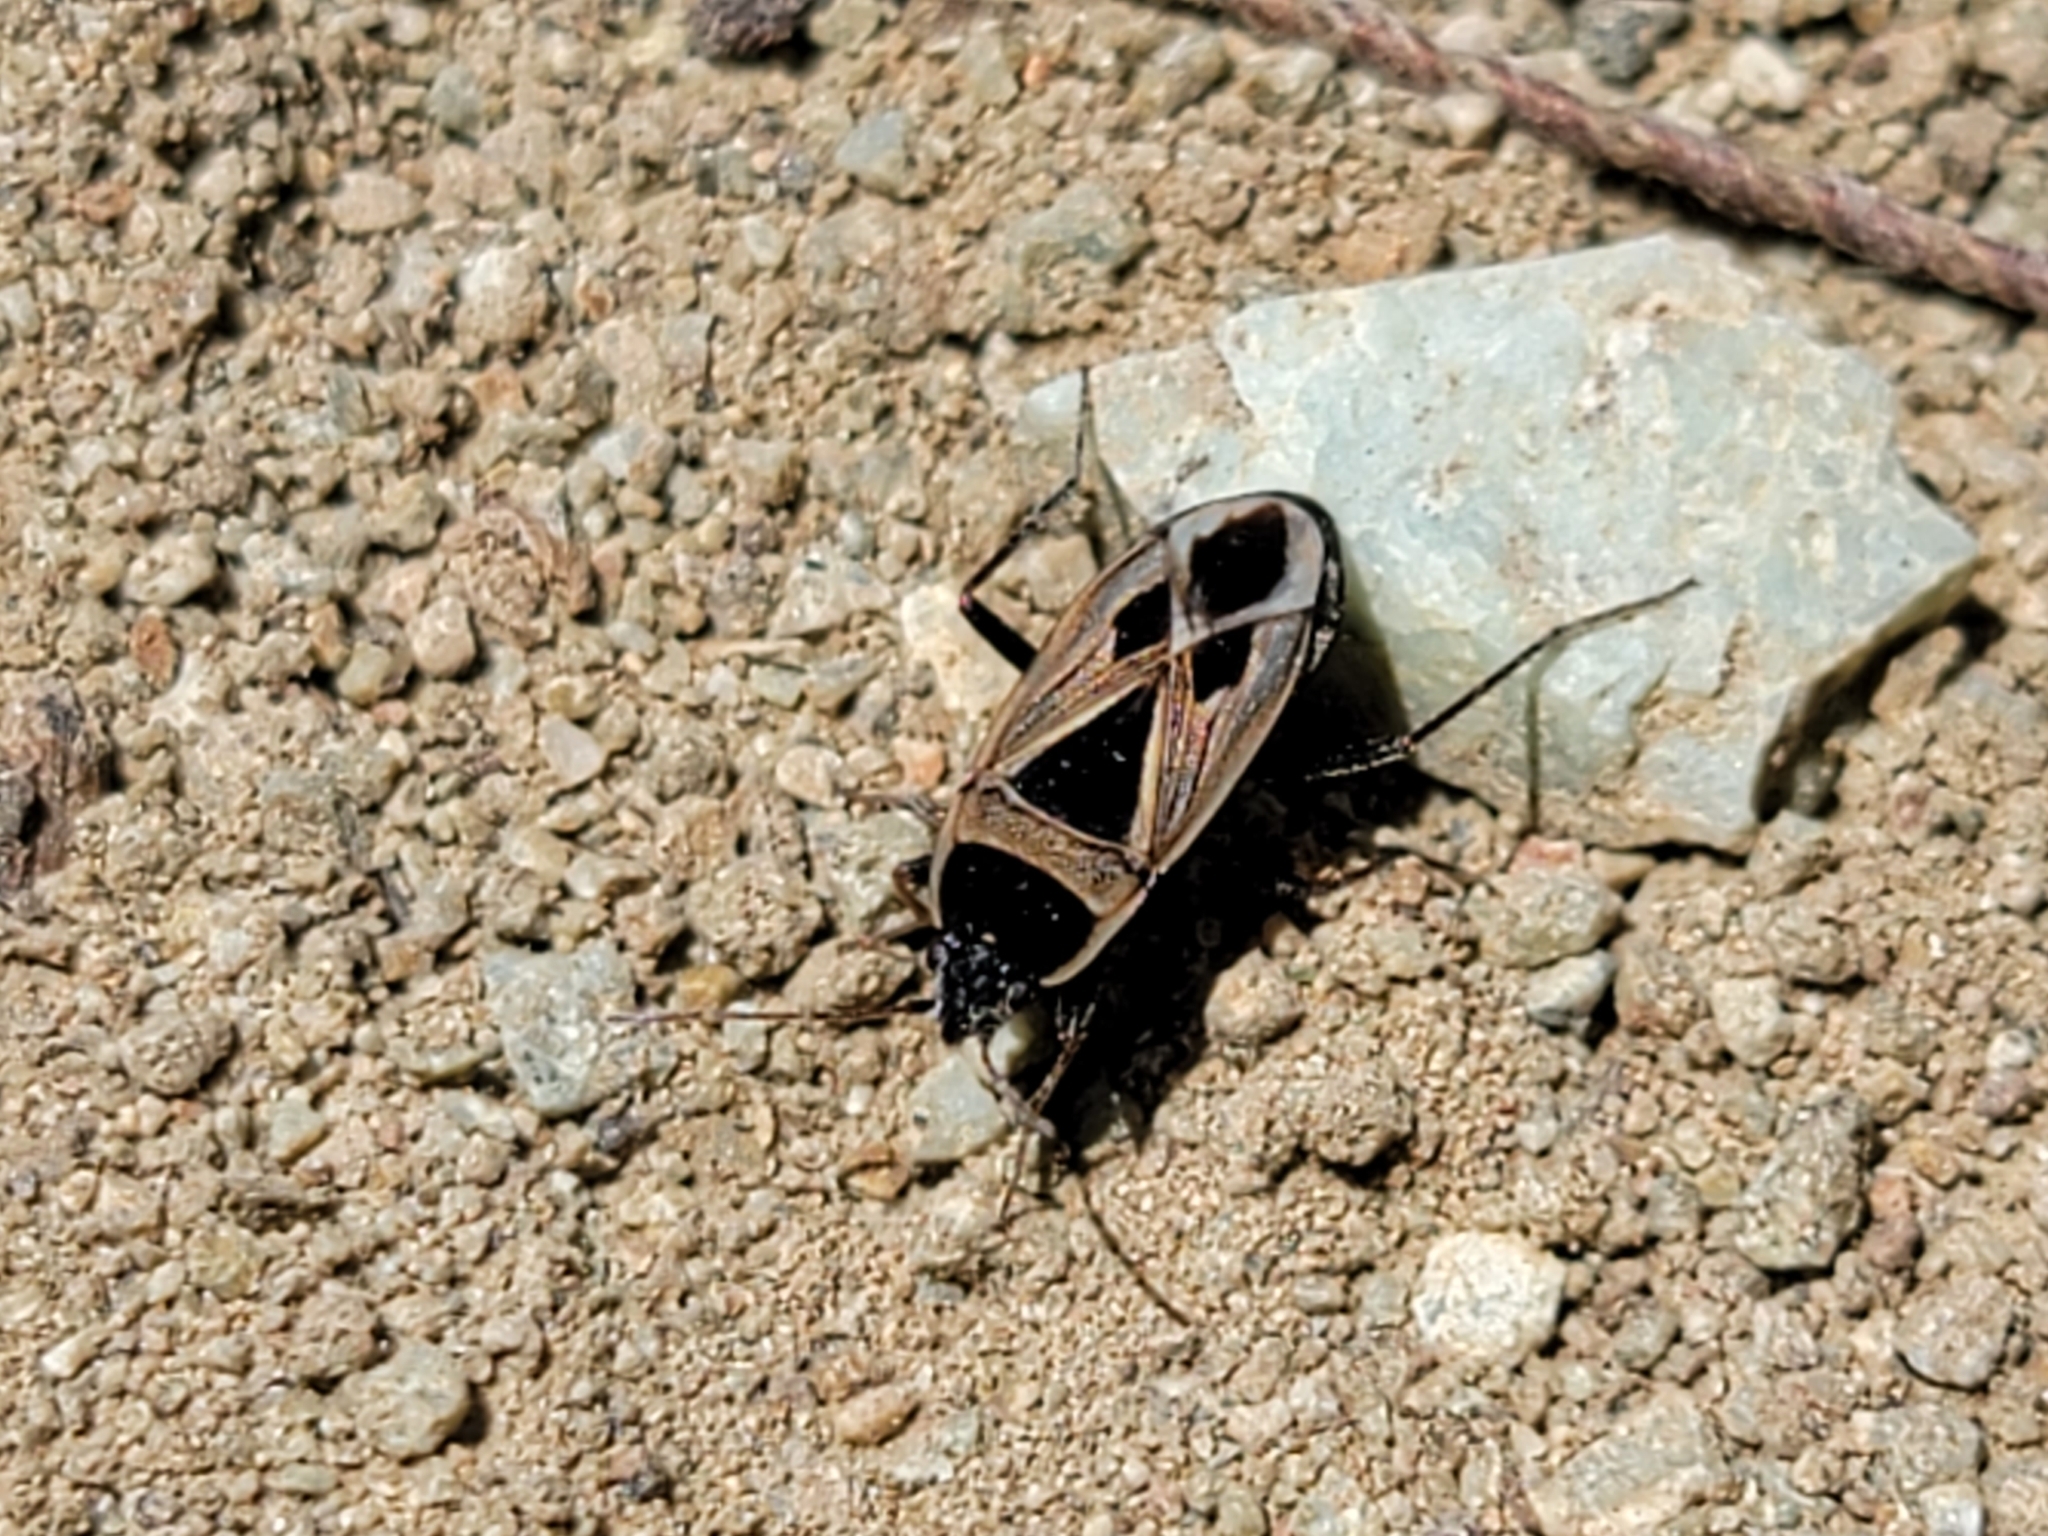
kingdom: Animalia
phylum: Arthropoda
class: Insecta
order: Hemiptera
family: Rhyparochromidae
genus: Xanthochilus
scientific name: Xanthochilus saturnius
